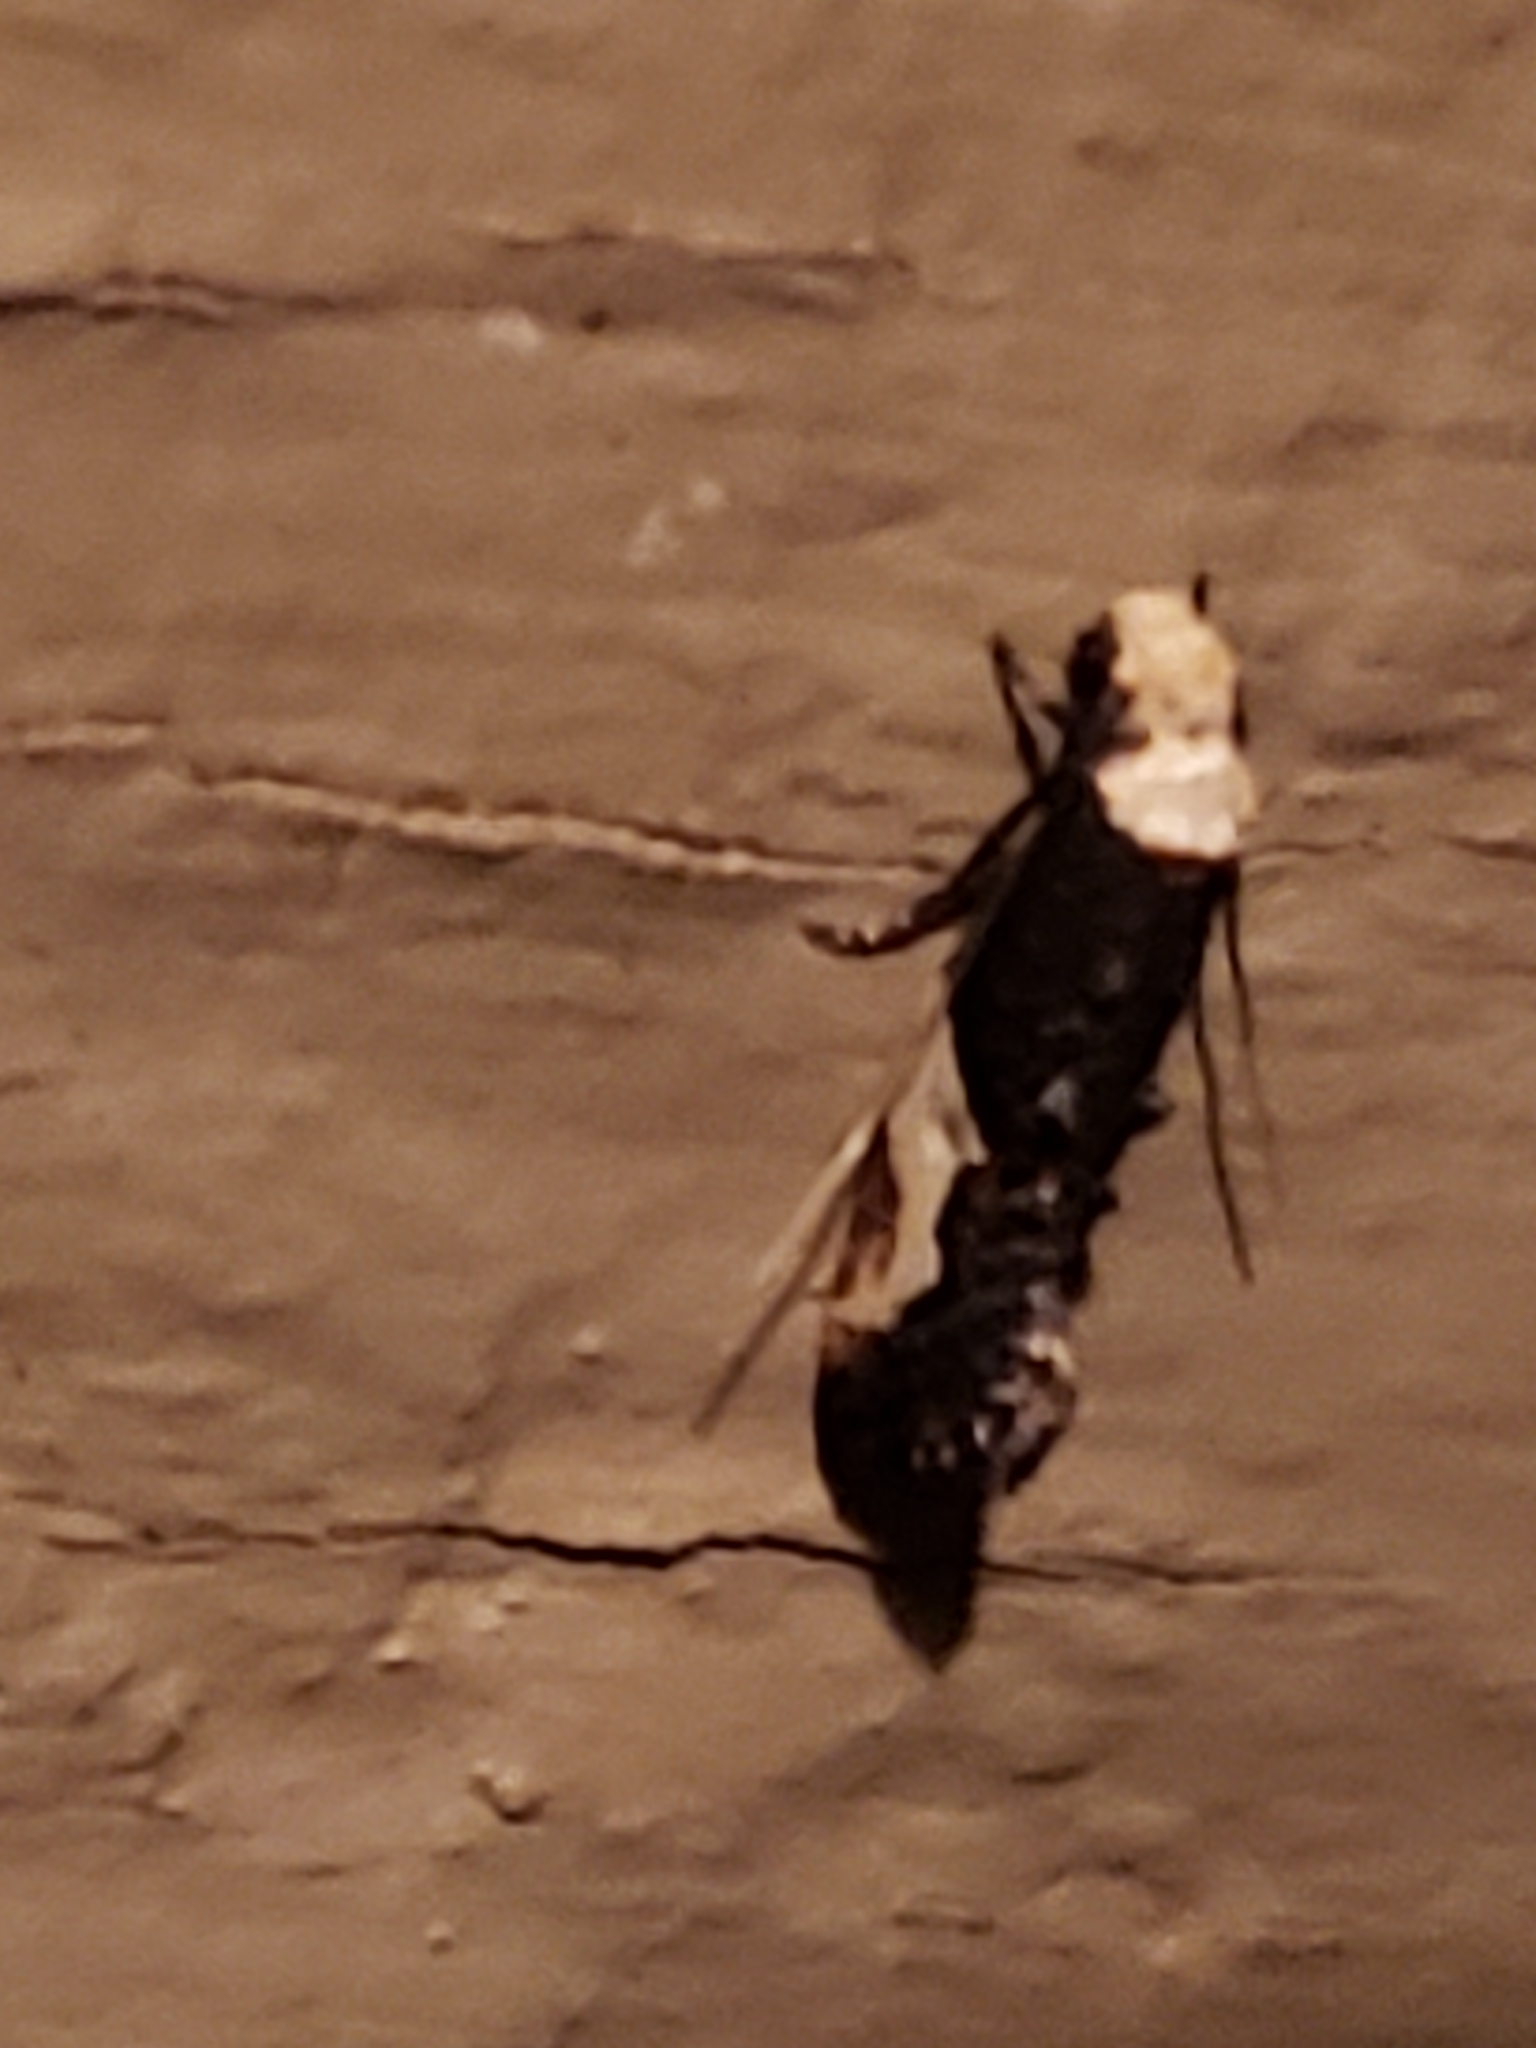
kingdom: Animalia
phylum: Arthropoda
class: Insecta
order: Lepidoptera
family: Tineidae
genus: Monopis
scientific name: Monopis longella
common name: Pavlovski's monopis moth
